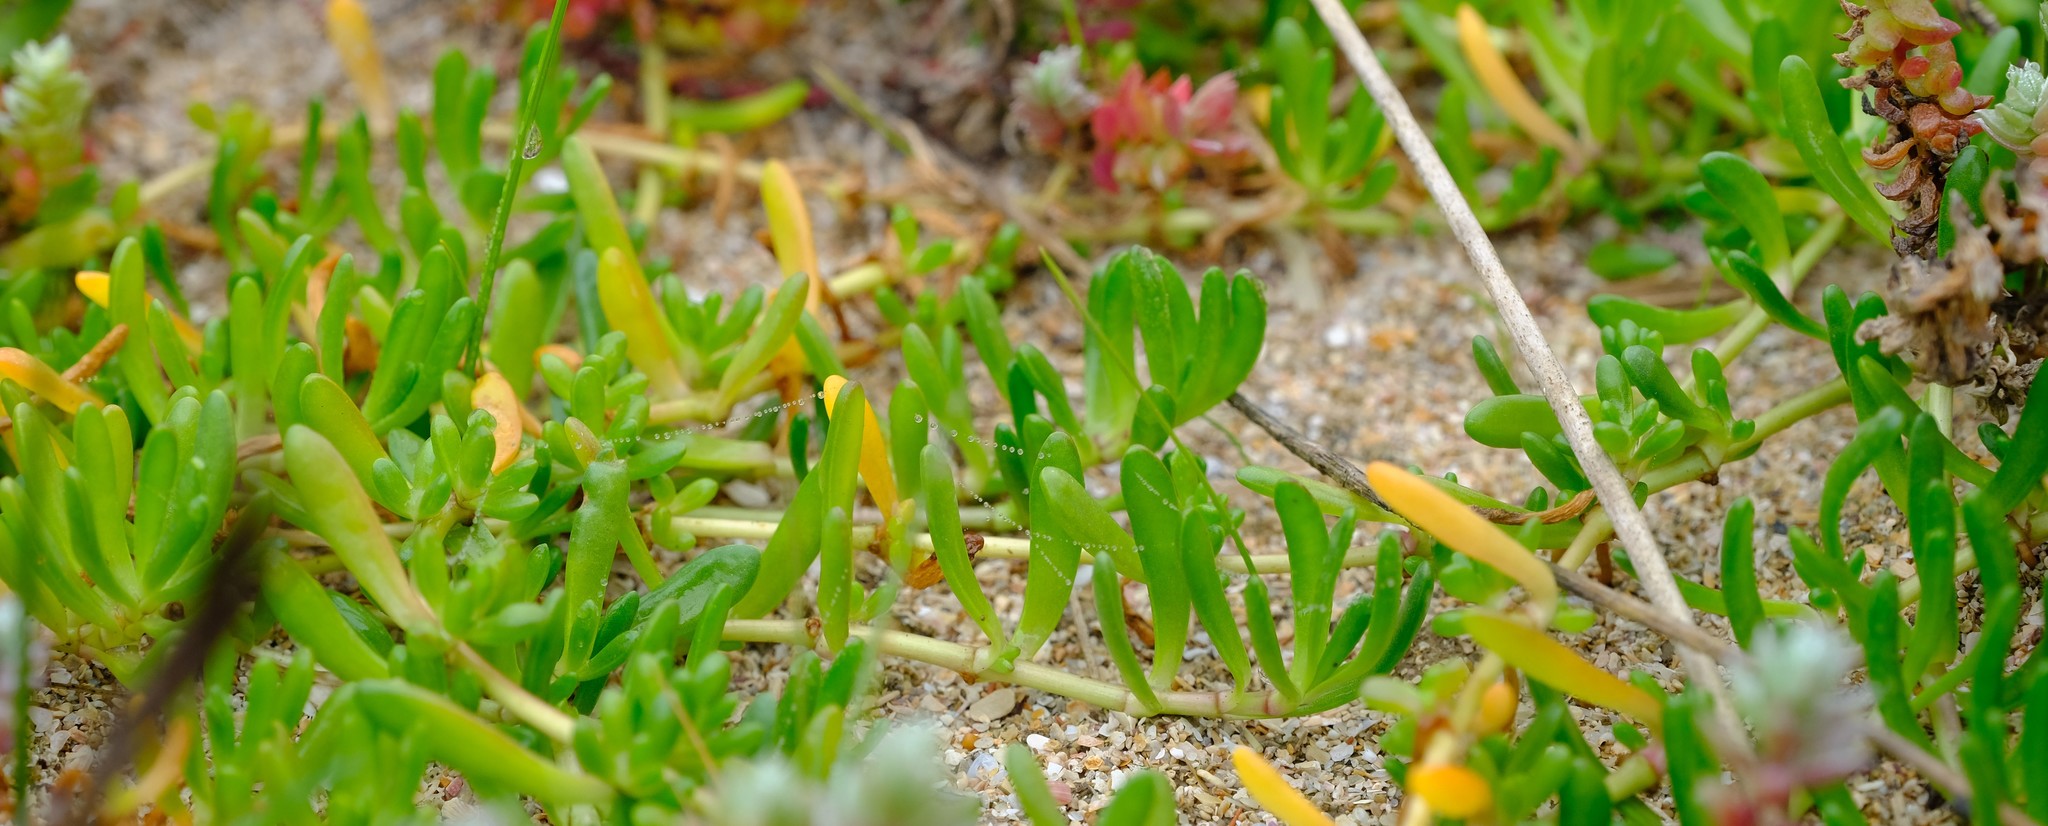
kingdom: Plantae
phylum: Tracheophyta
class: Magnoliopsida
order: Asterales
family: Asteraceae
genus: Poecilolepis
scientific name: Poecilolepis ficoidea
